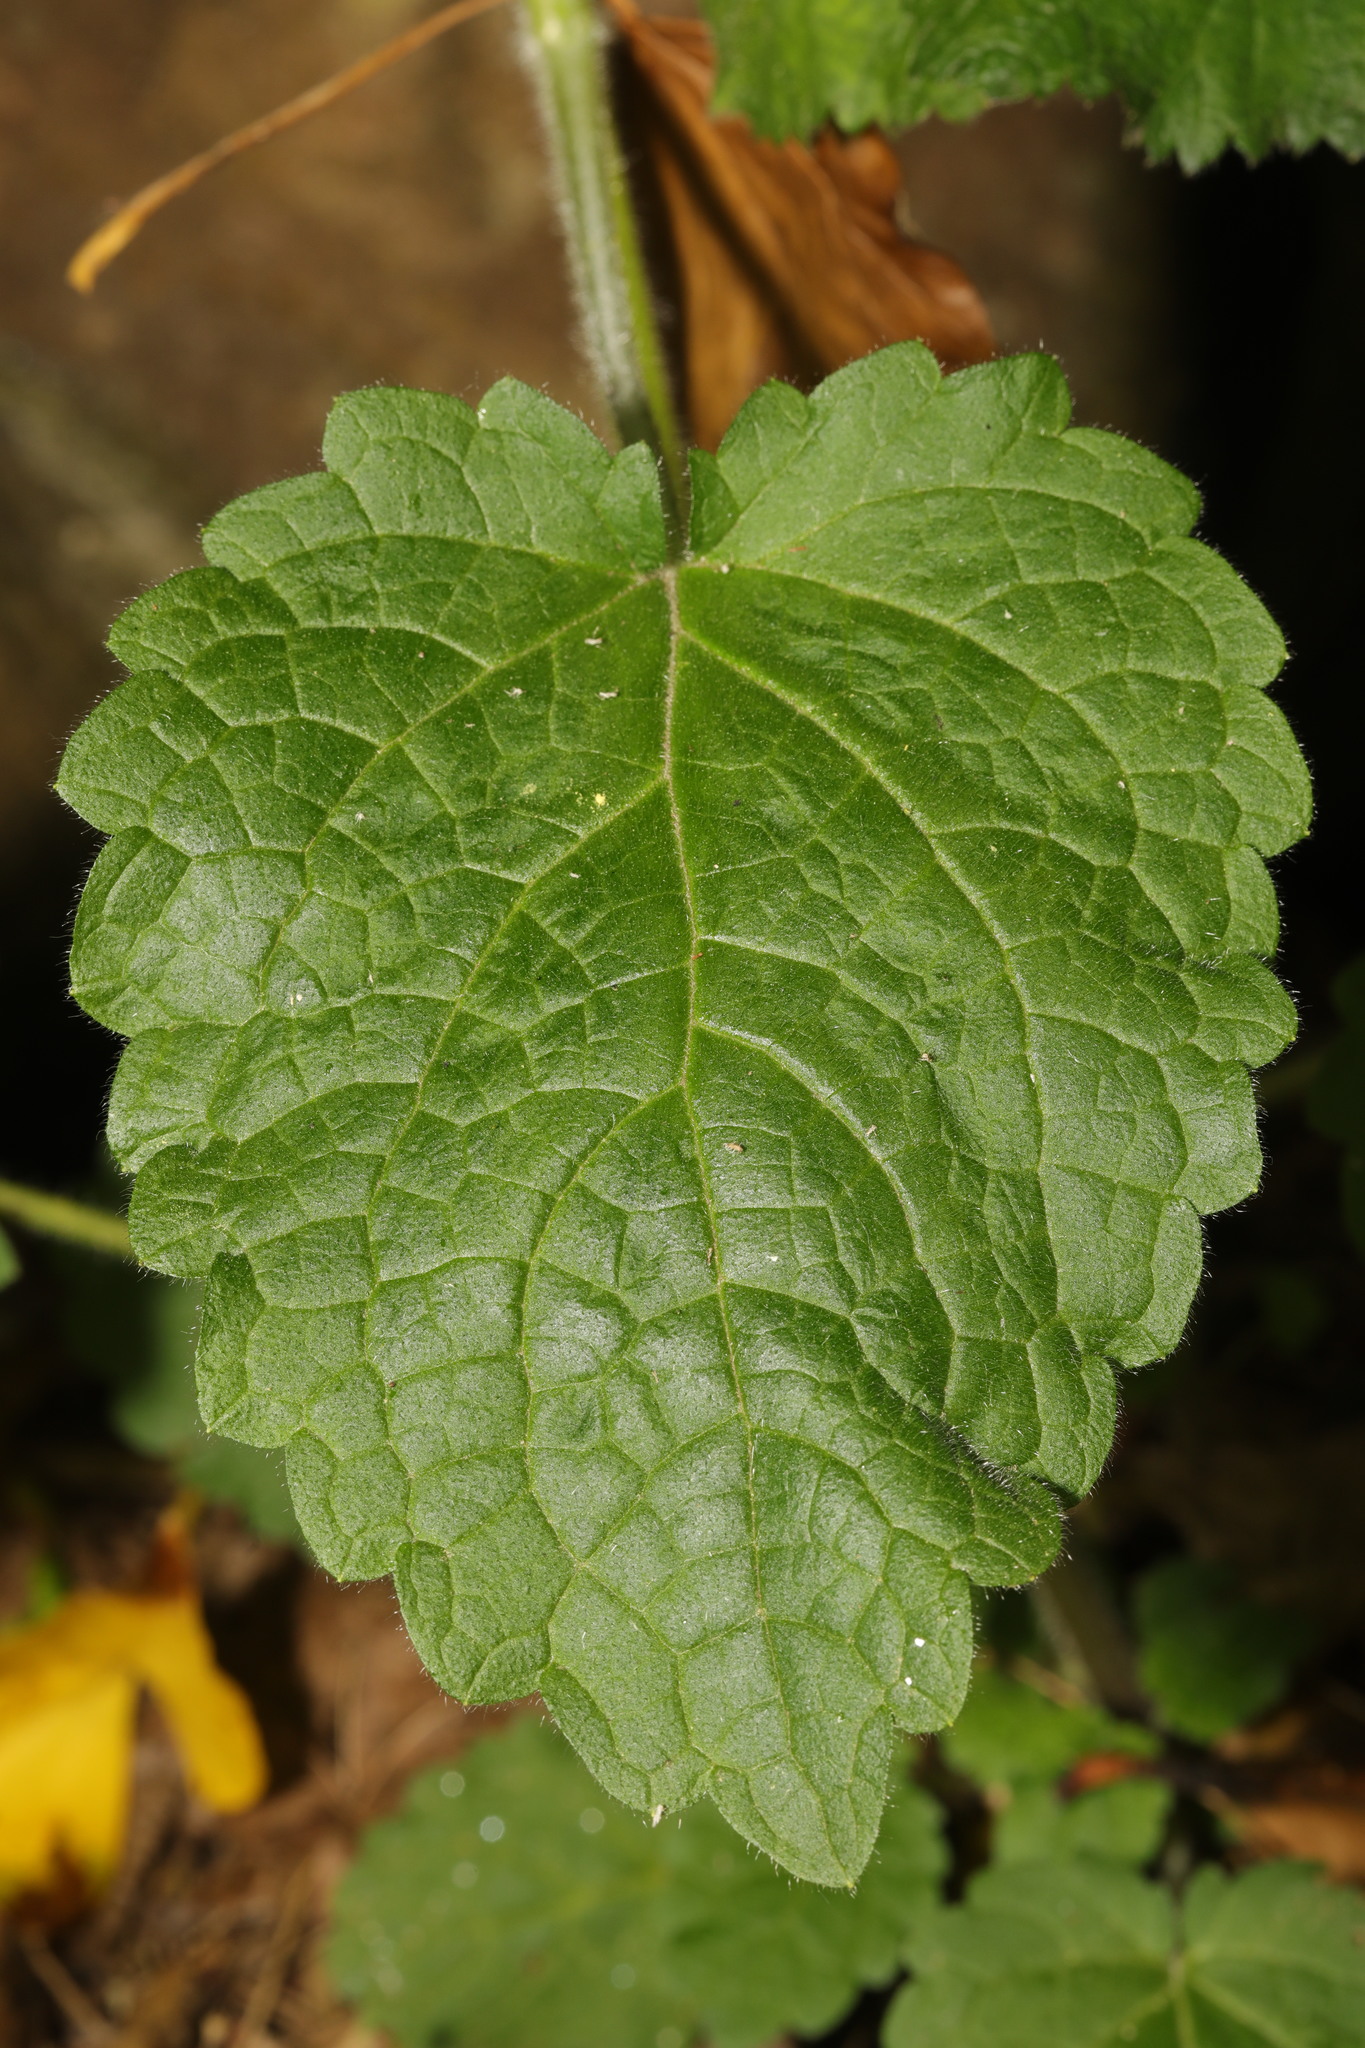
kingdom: Plantae
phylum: Tracheophyta
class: Magnoliopsida
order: Lamiales
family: Lamiaceae
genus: Stachys
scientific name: Stachys sylvatica
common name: Hedge woundwort
